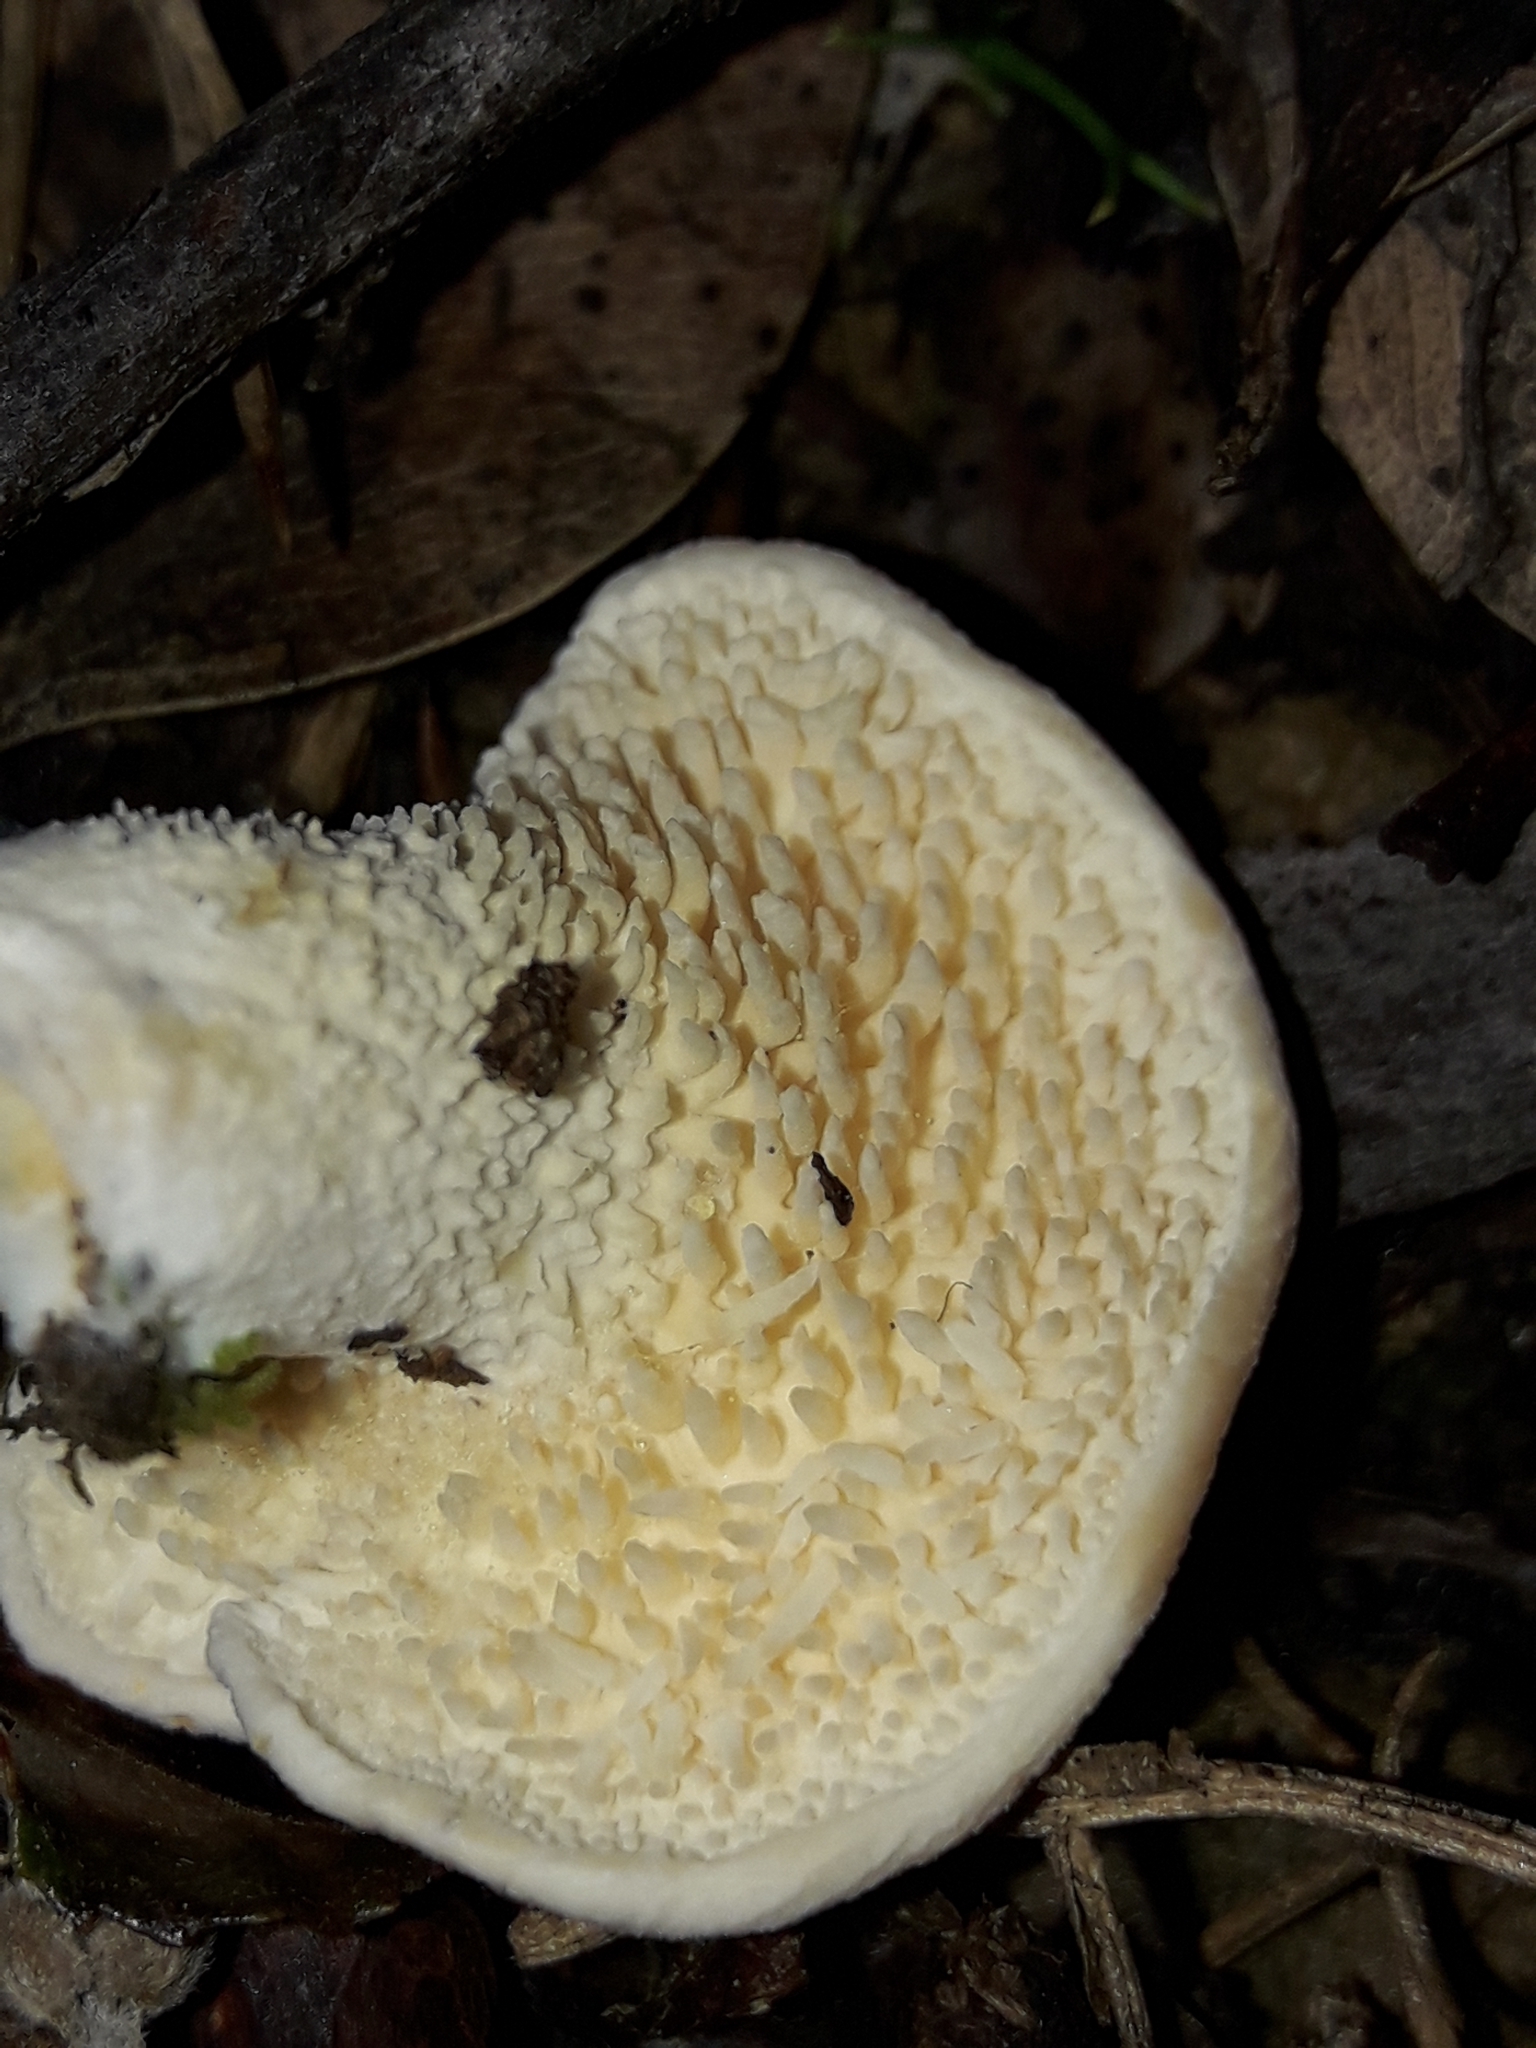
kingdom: Fungi
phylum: Basidiomycota
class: Agaricomycetes
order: Cantharellales
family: Hydnaceae
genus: Hydnum
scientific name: Hydnum ambustum
